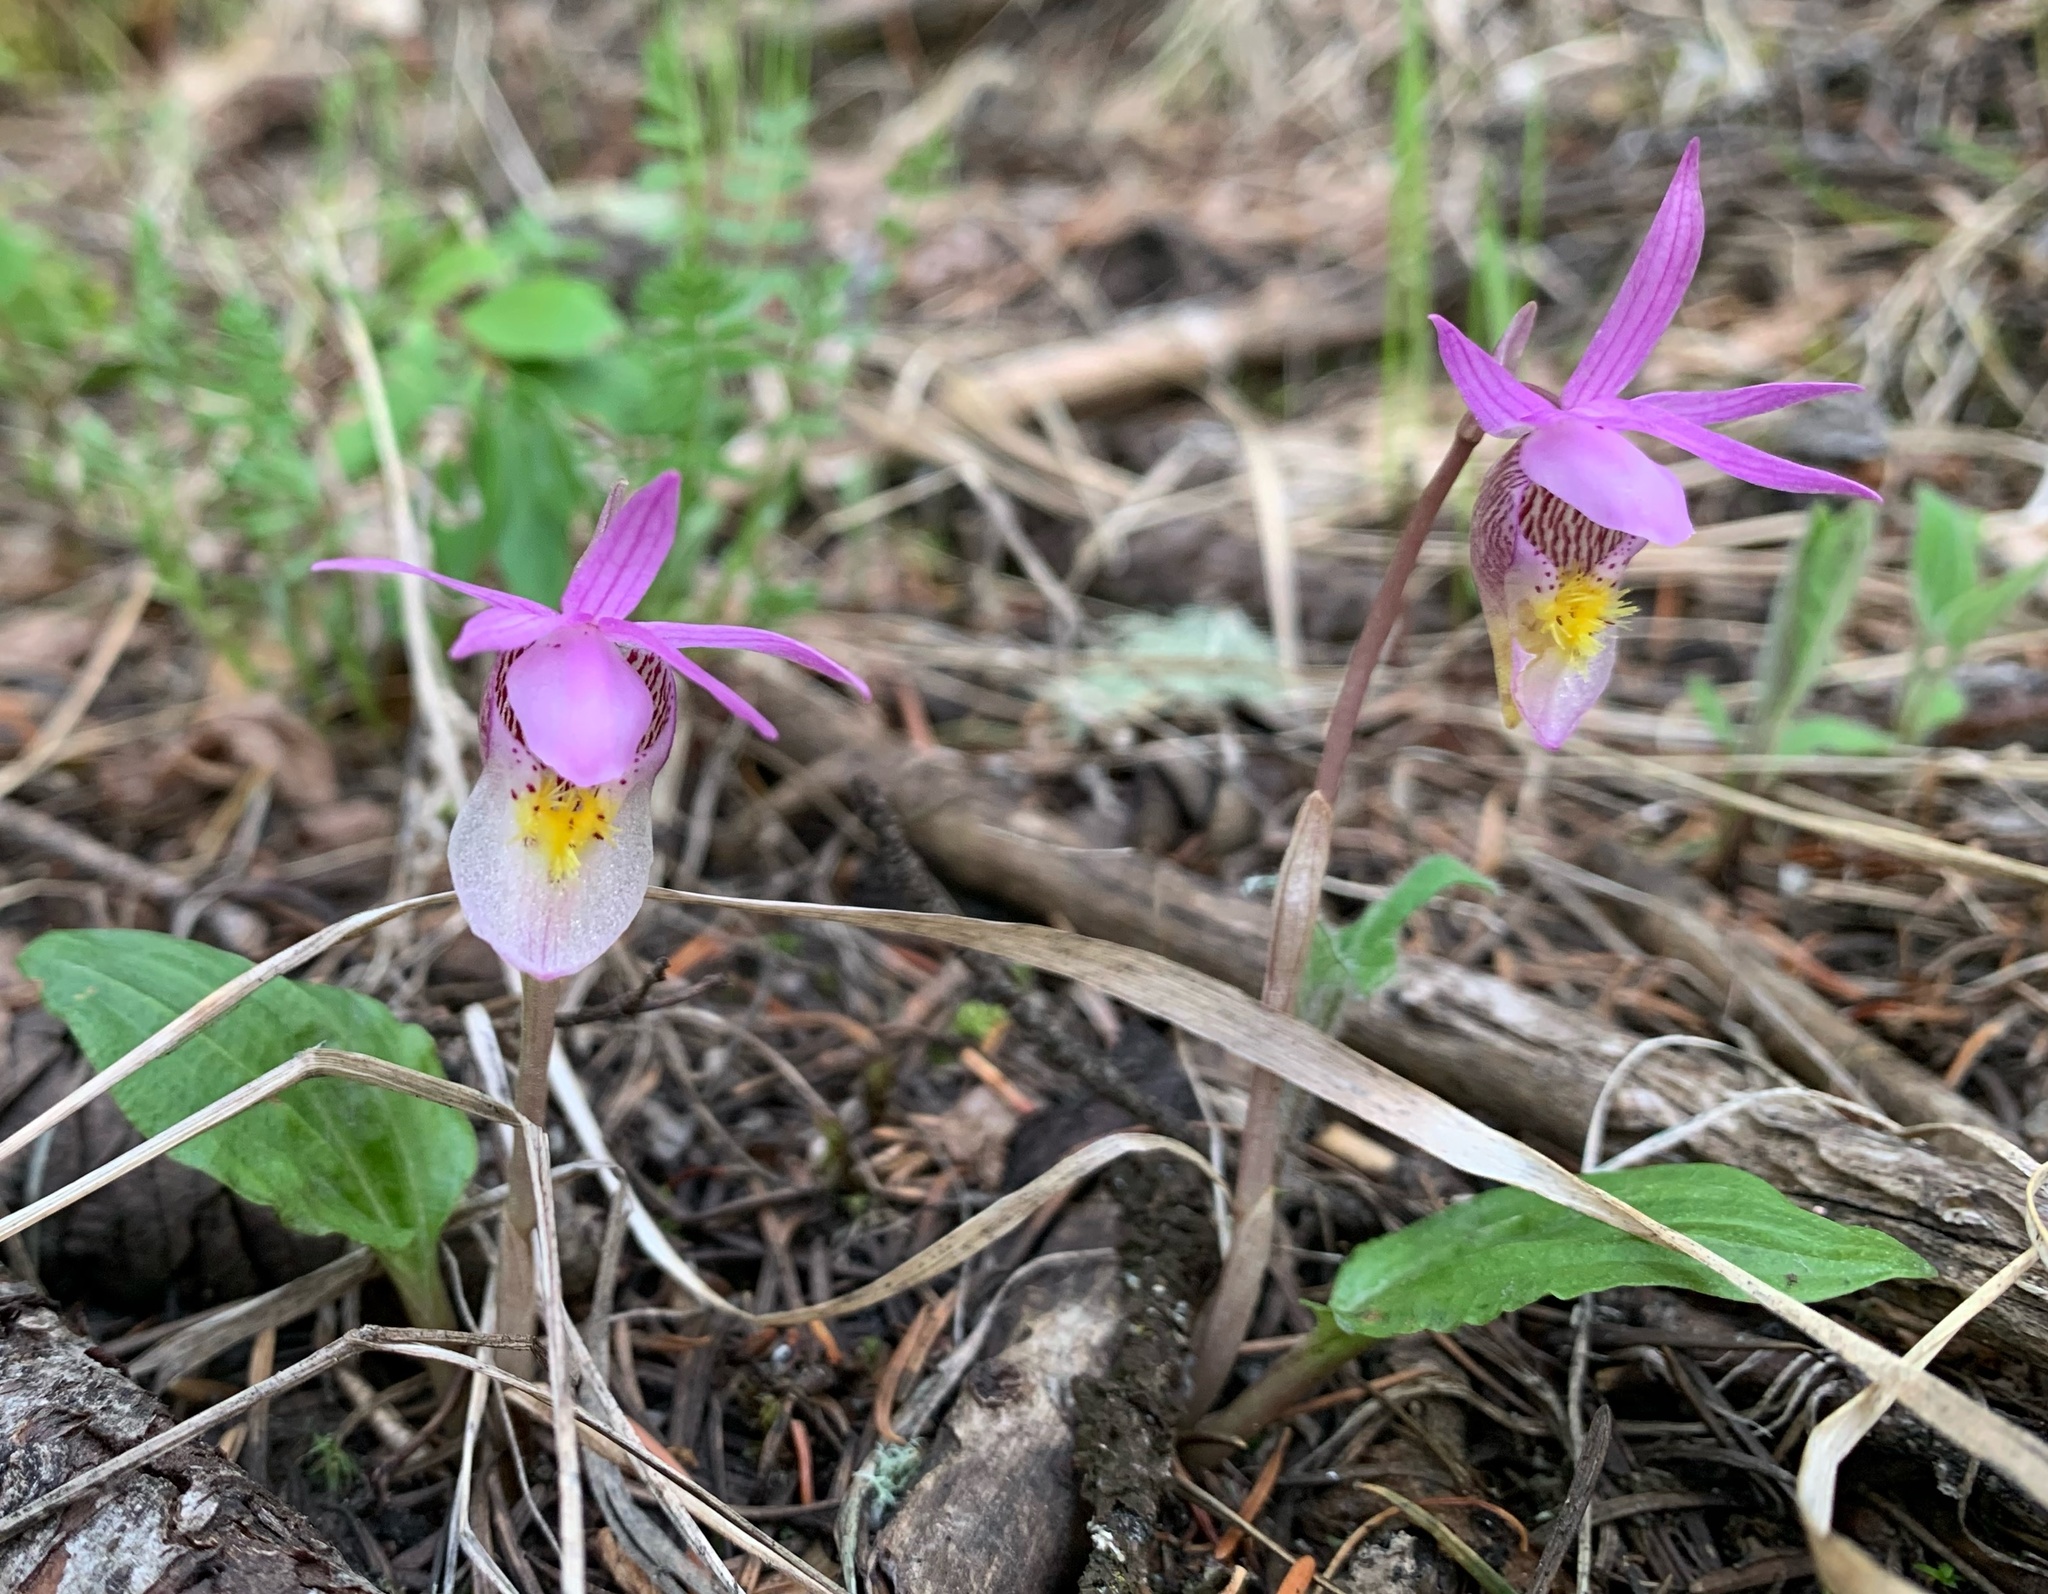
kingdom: Plantae
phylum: Tracheophyta
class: Liliopsida
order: Asparagales
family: Orchidaceae
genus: Calypso
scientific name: Calypso bulbosa
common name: Calypso
